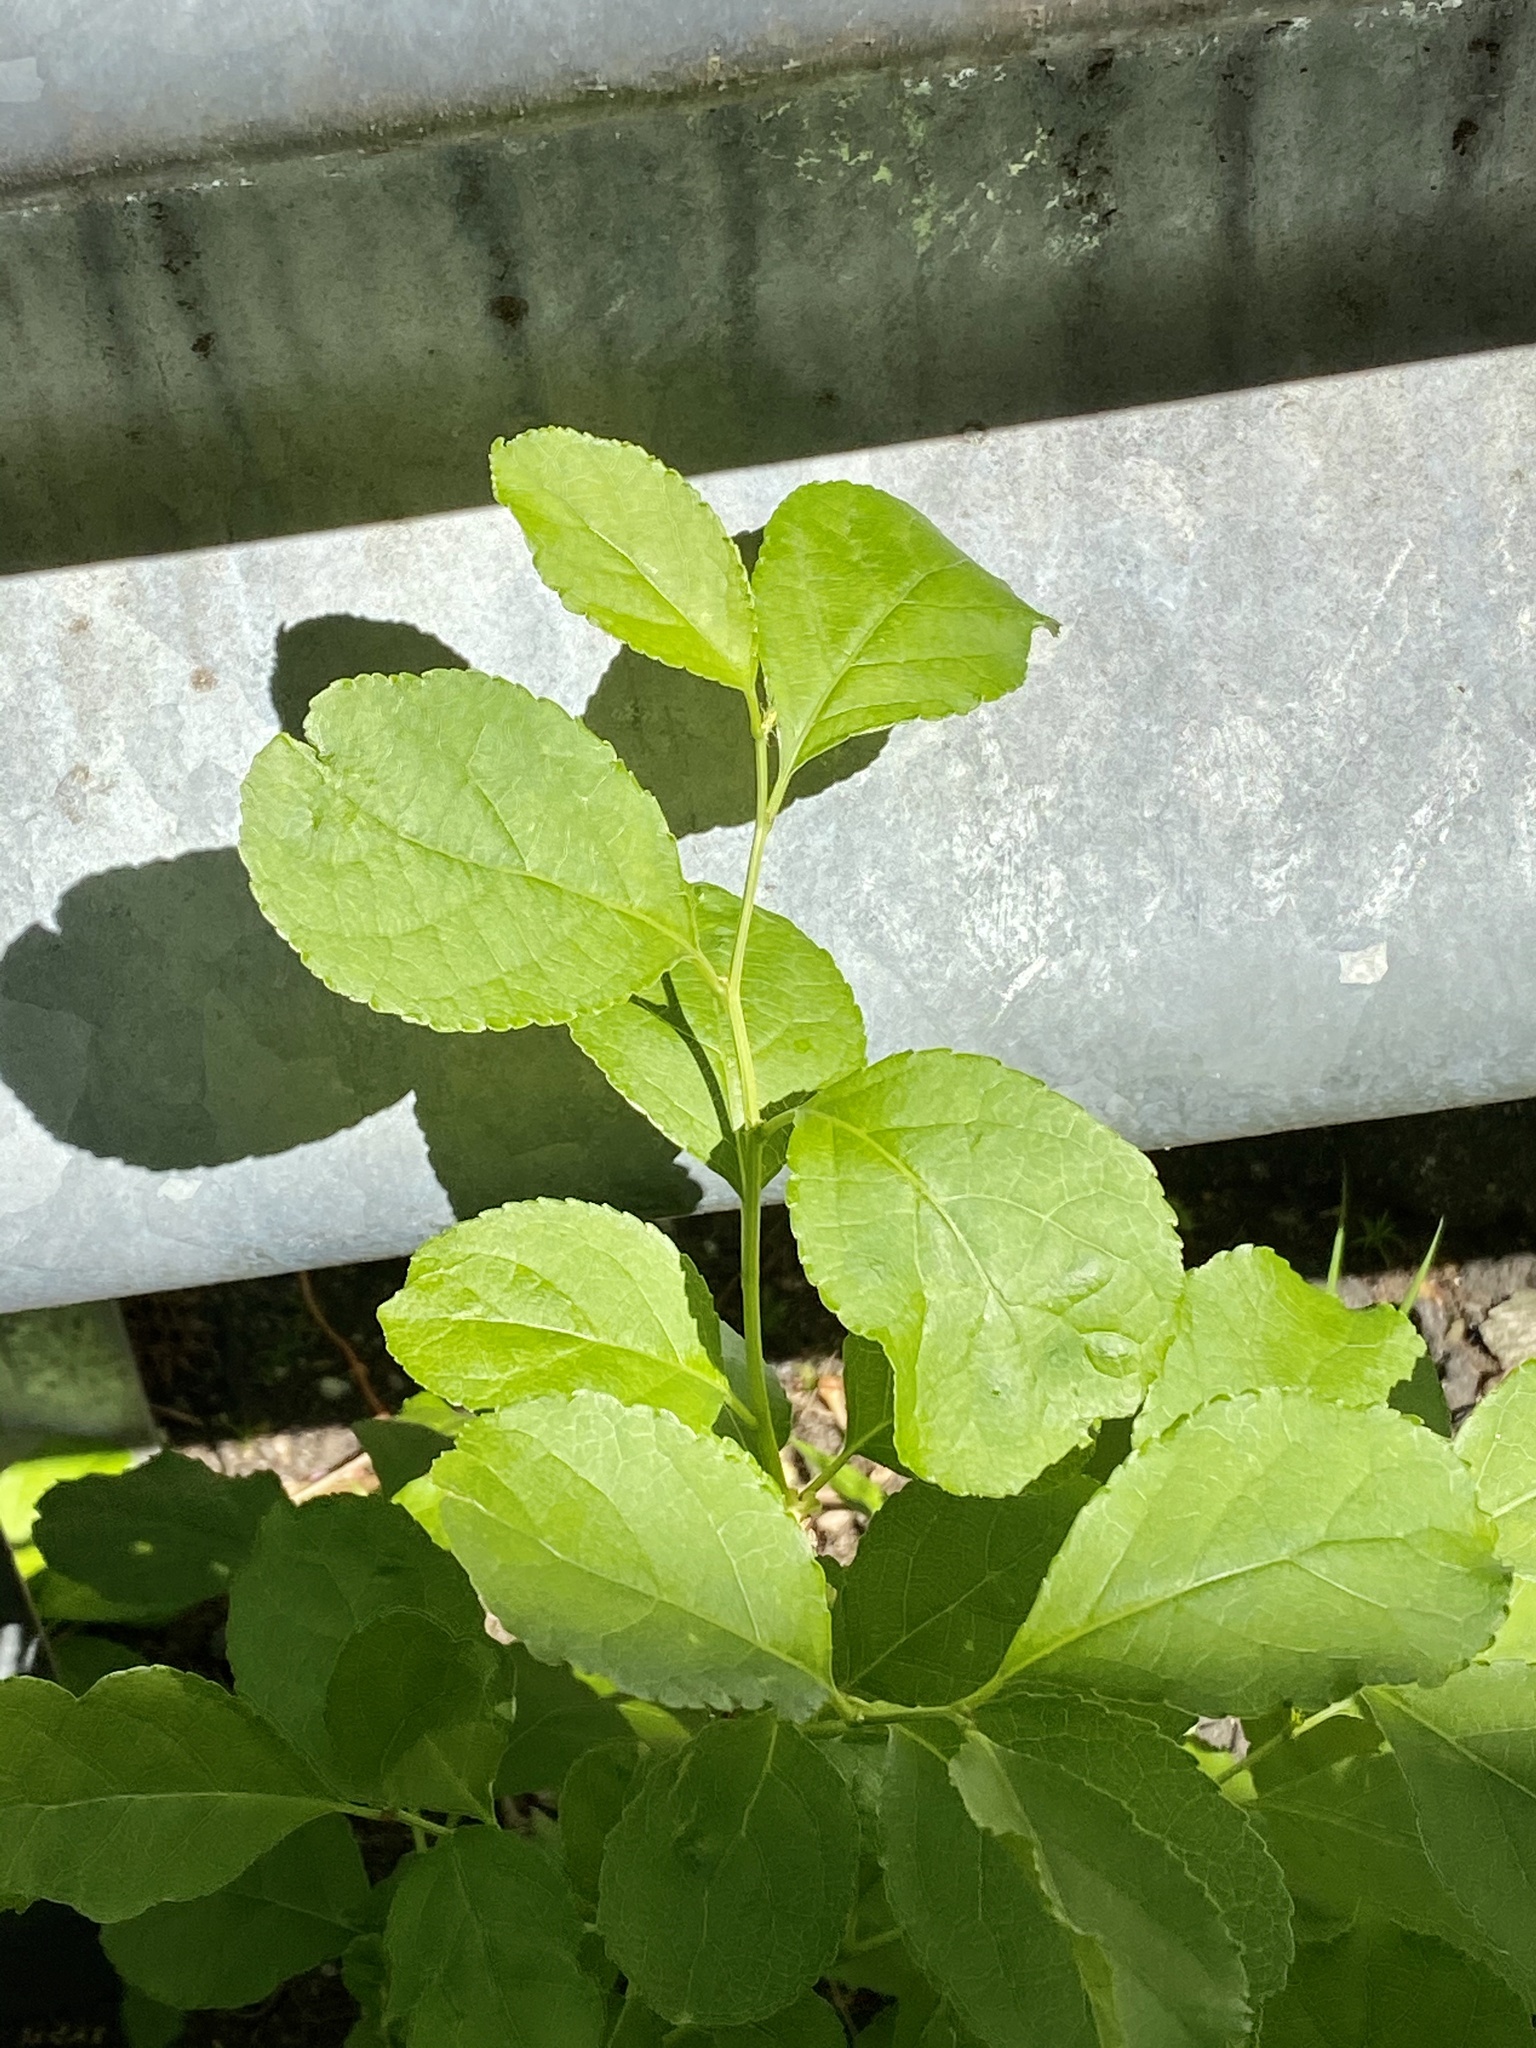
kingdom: Plantae
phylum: Tracheophyta
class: Magnoliopsida
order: Celastrales
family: Celastraceae
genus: Celastrus
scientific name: Celastrus orbiculatus
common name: Oriental bittersweet
